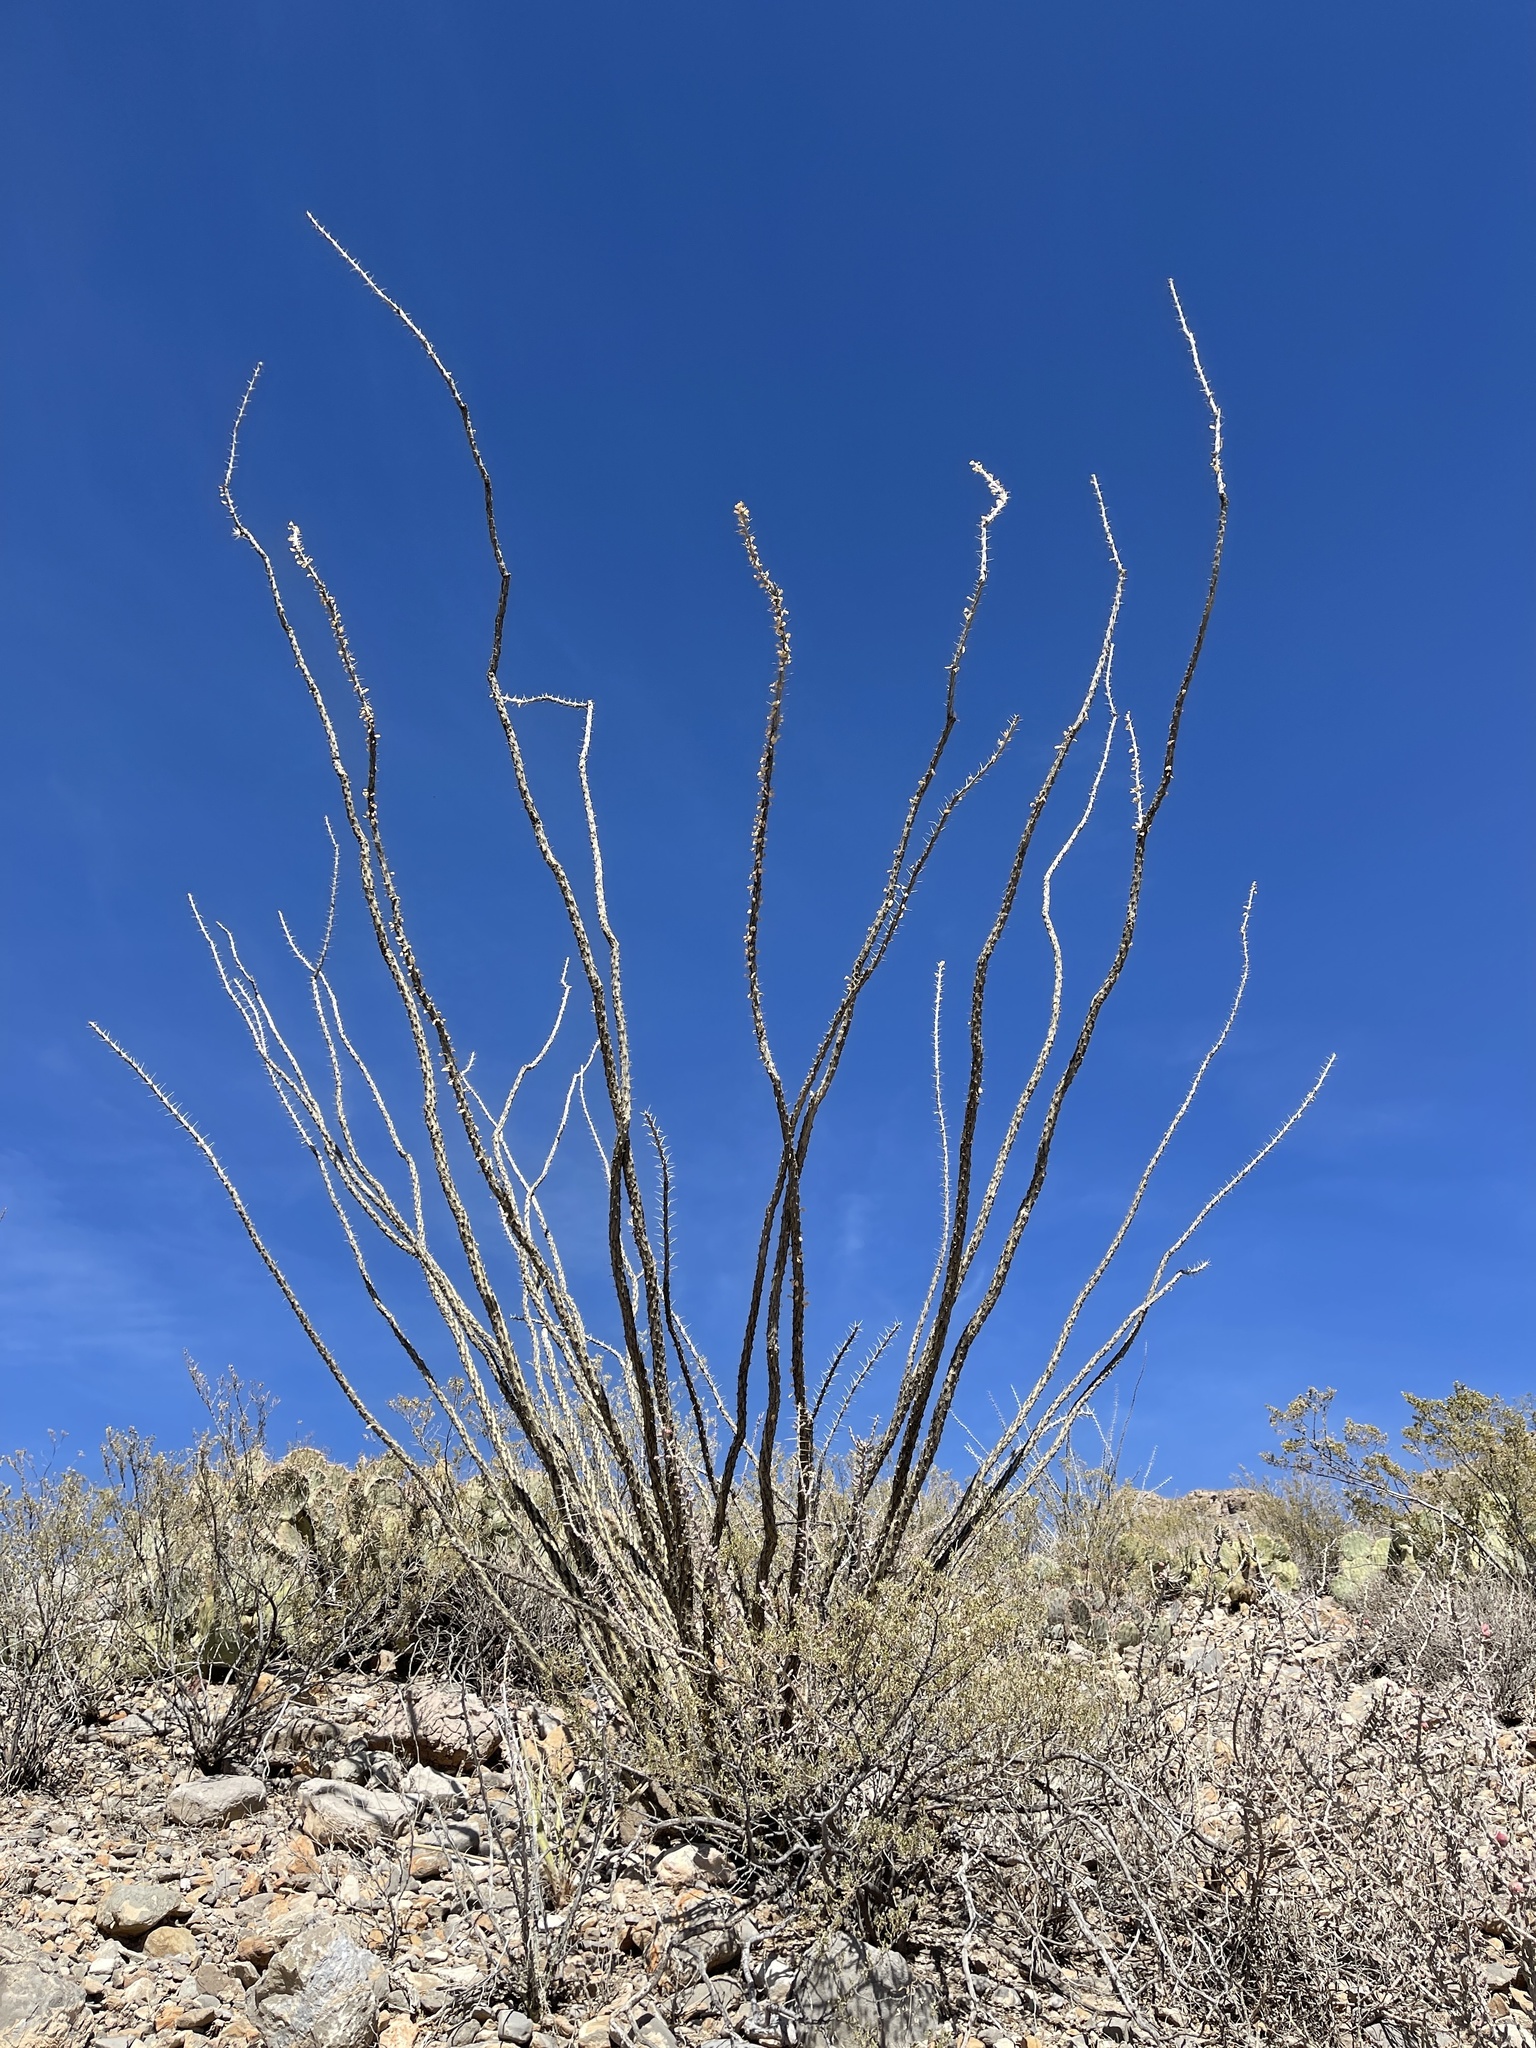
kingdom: Plantae
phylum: Tracheophyta
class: Magnoliopsida
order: Ericales
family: Fouquieriaceae
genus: Fouquieria
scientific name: Fouquieria splendens
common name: Vine-cactus
